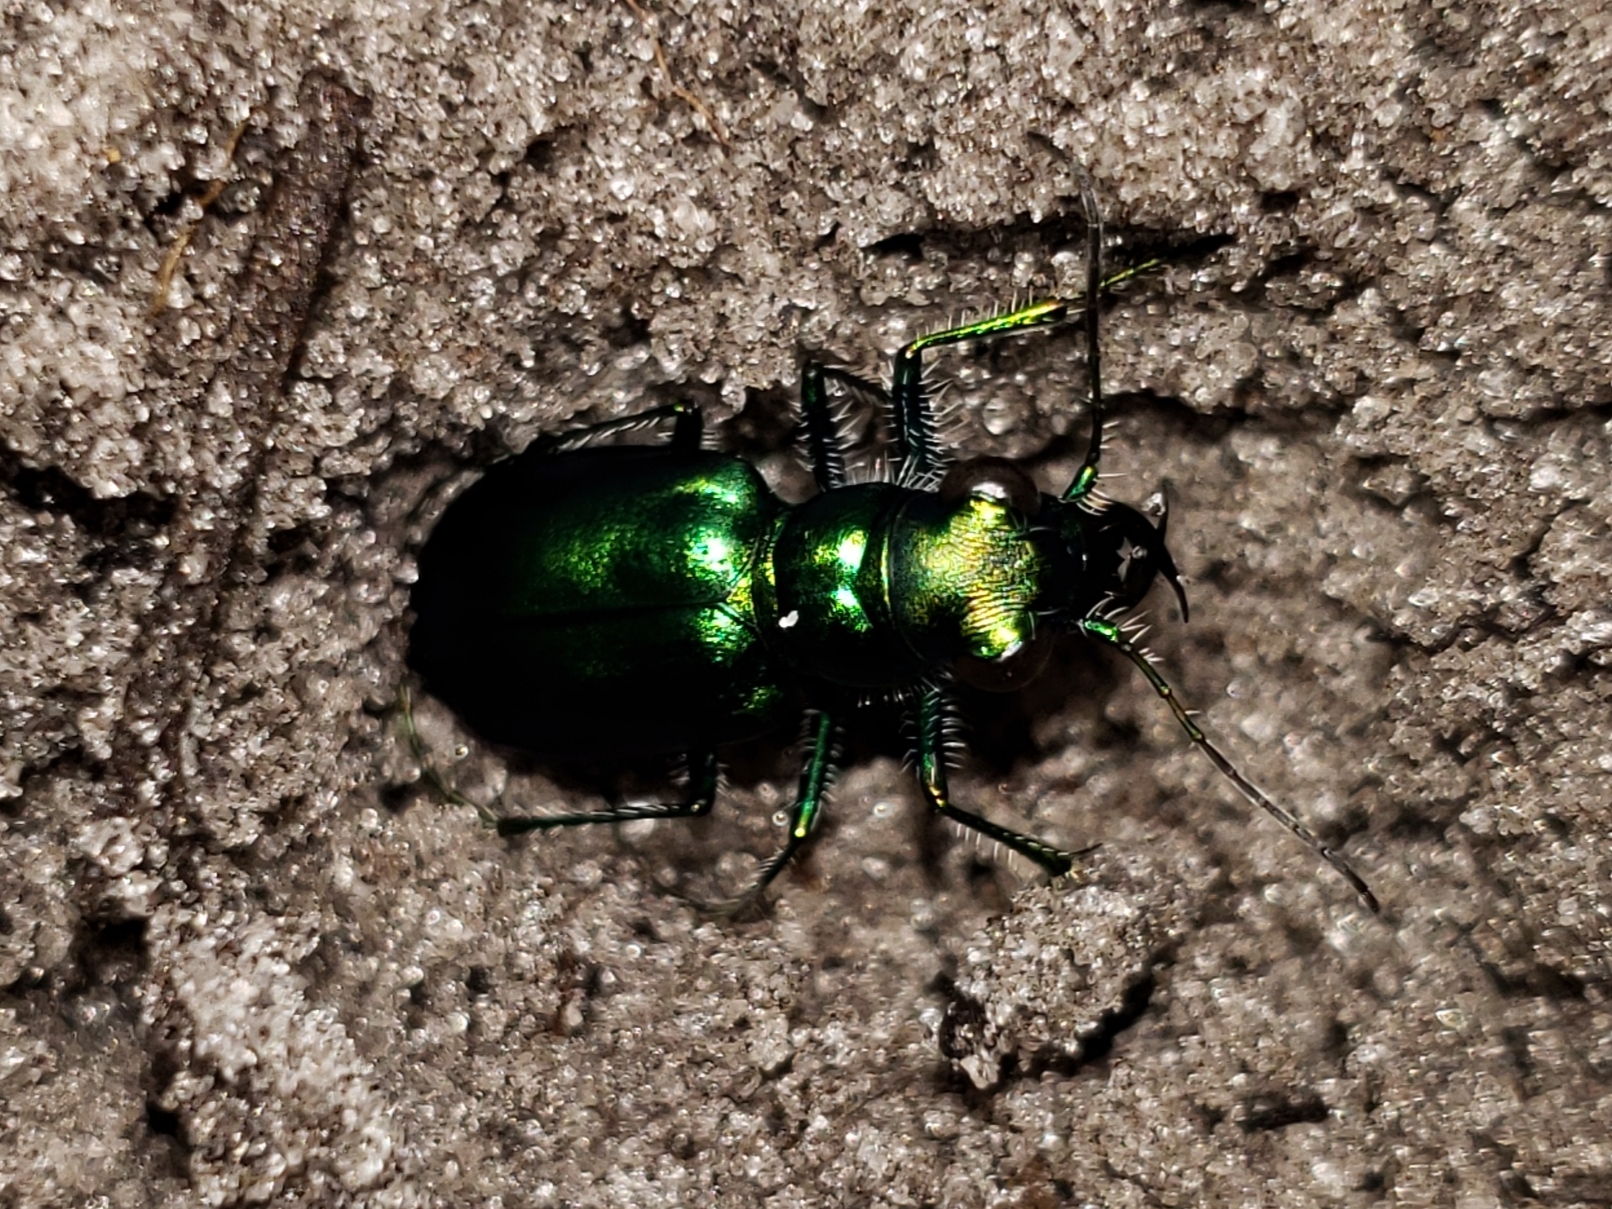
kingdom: Animalia
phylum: Arthropoda
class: Insecta
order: Coleoptera
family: Carabidae
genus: Cicindela
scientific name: Cicindela scutellaris
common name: Festive tiger beetle
